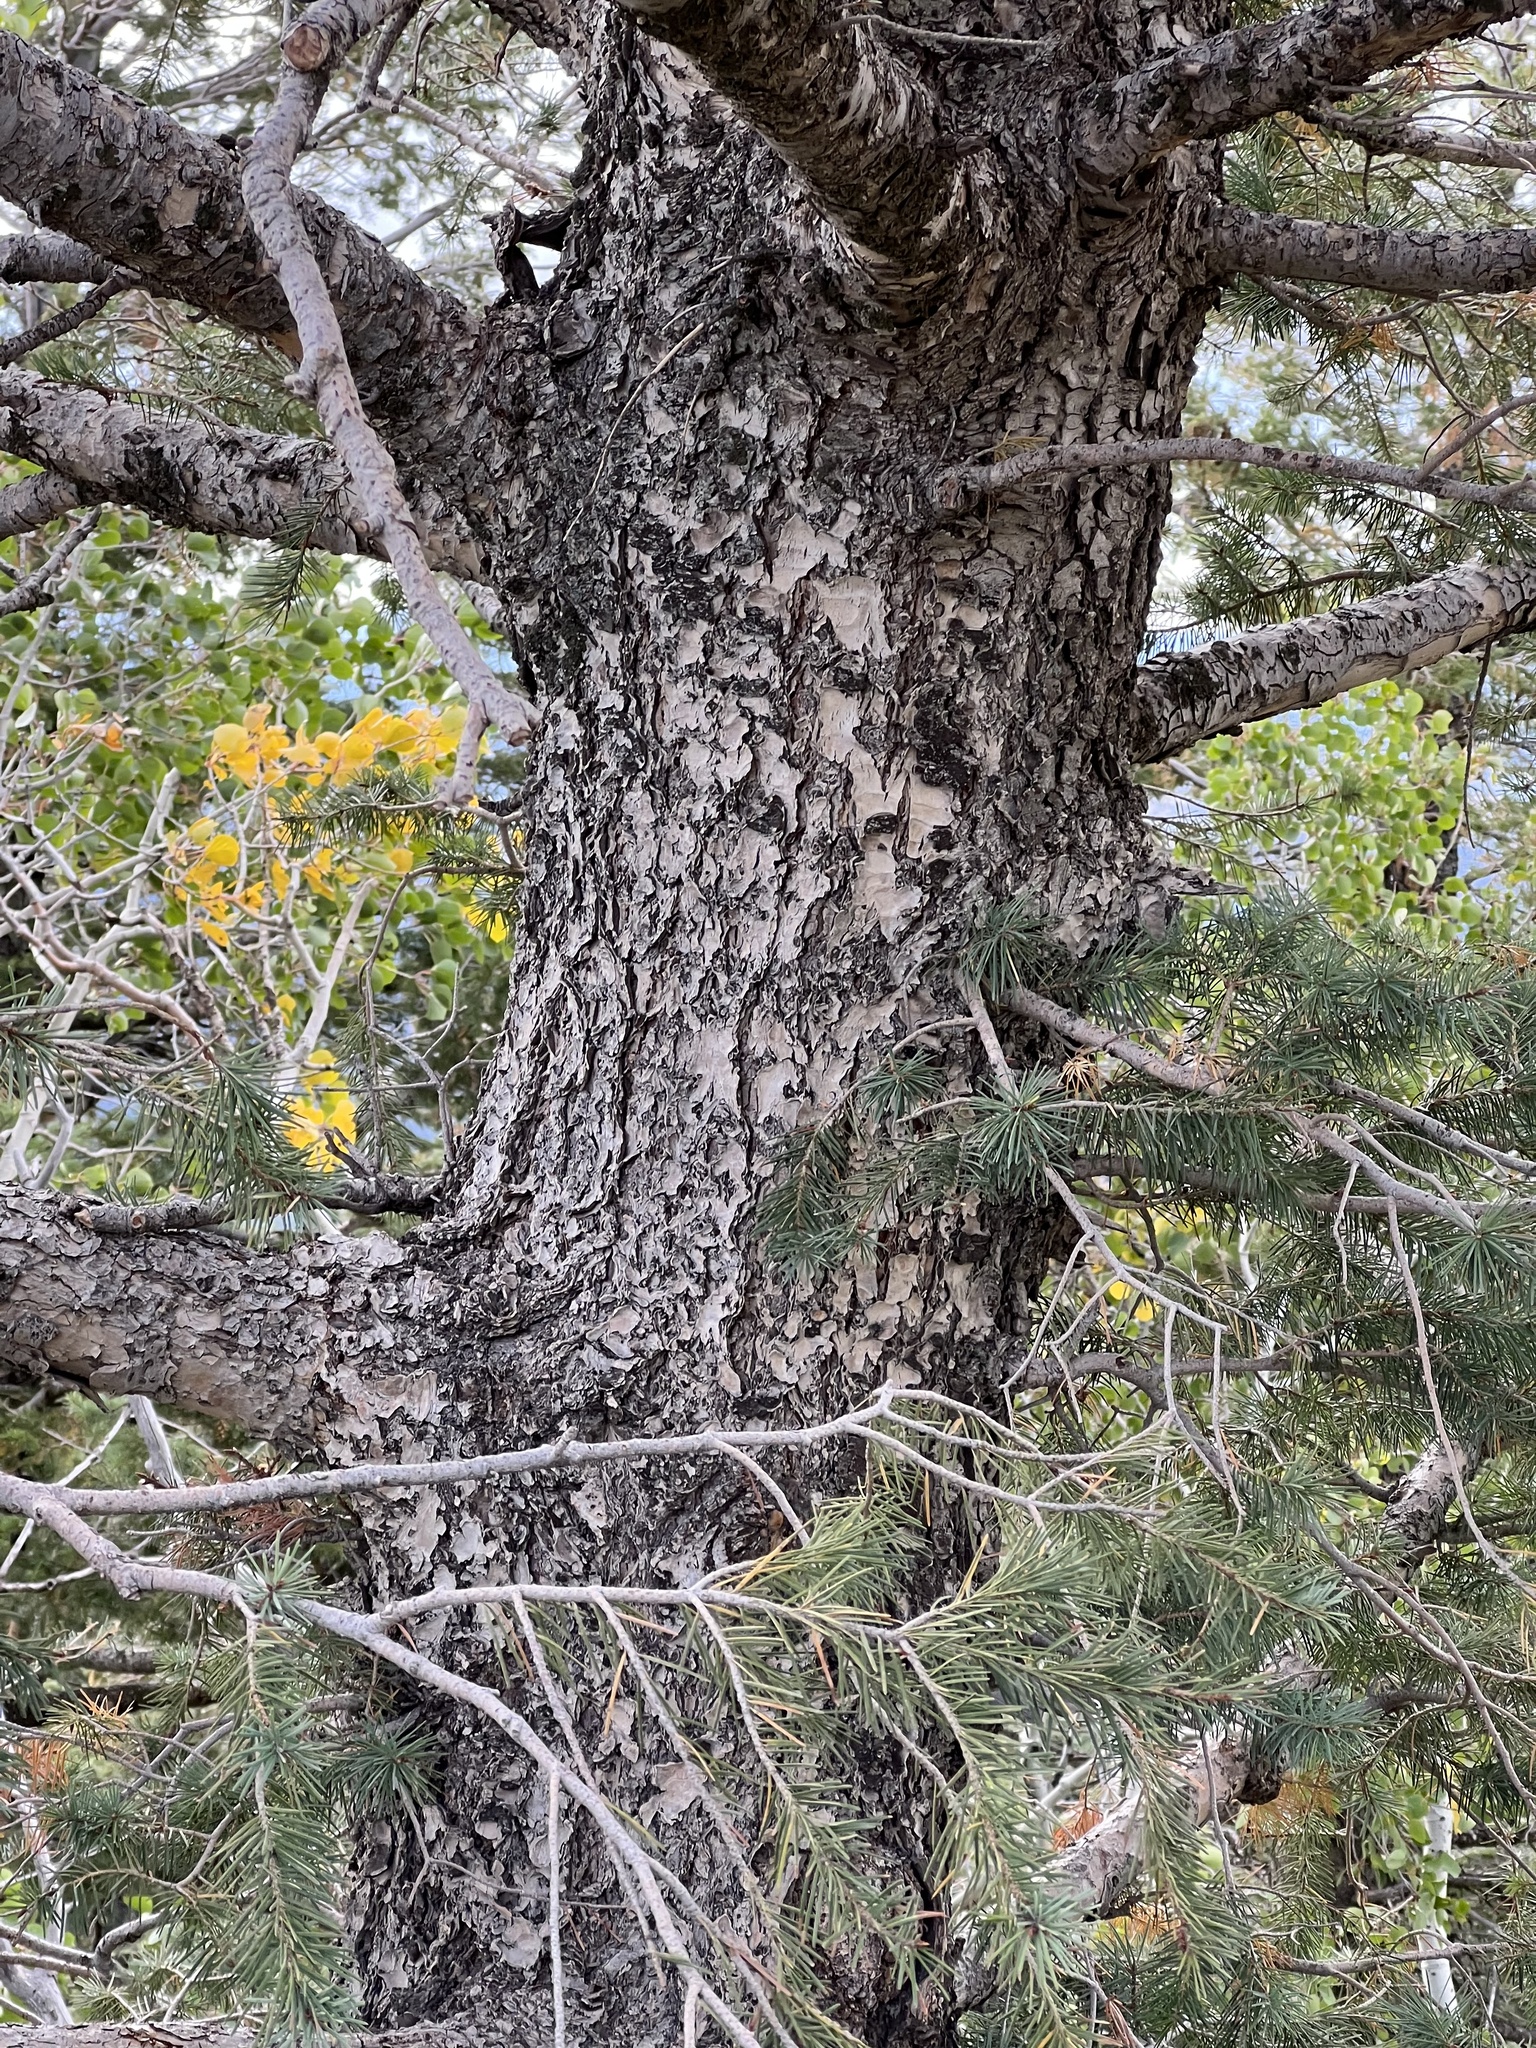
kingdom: Plantae
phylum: Tracheophyta
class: Pinopsida
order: Pinales
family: Pinaceae
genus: Pseudotsuga
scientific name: Pseudotsuga menziesii
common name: Douglas fir
